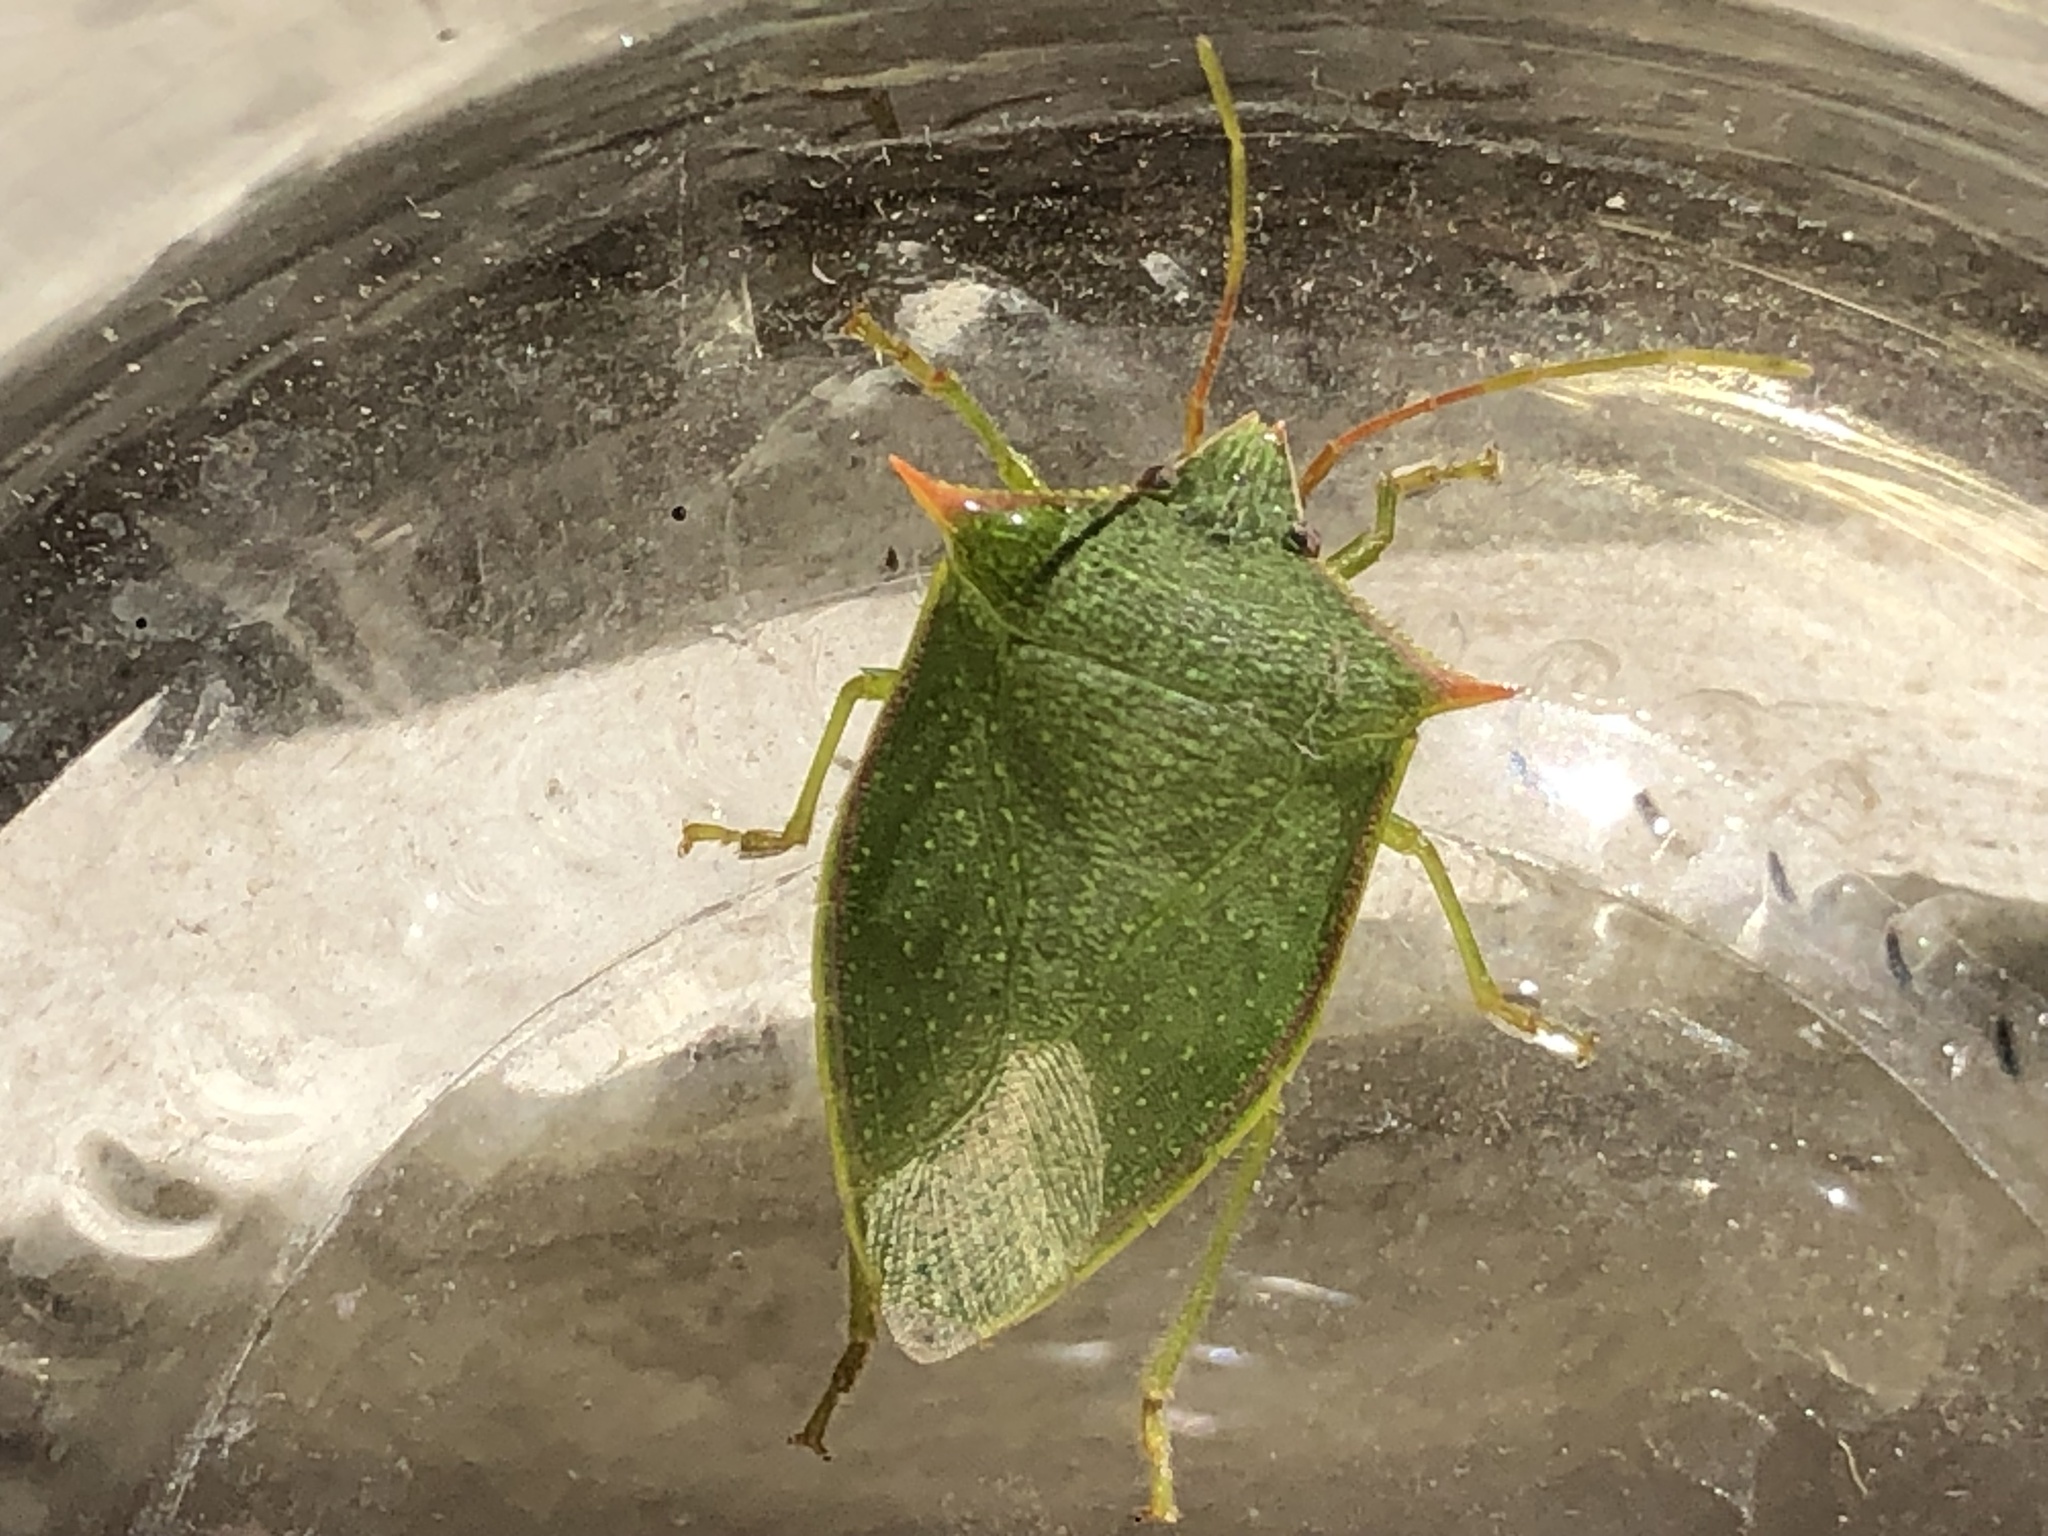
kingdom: Animalia
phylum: Arthropoda
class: Insecta
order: Hemiptera
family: Pentatomidae
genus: Loxa
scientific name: Loxa deducta
